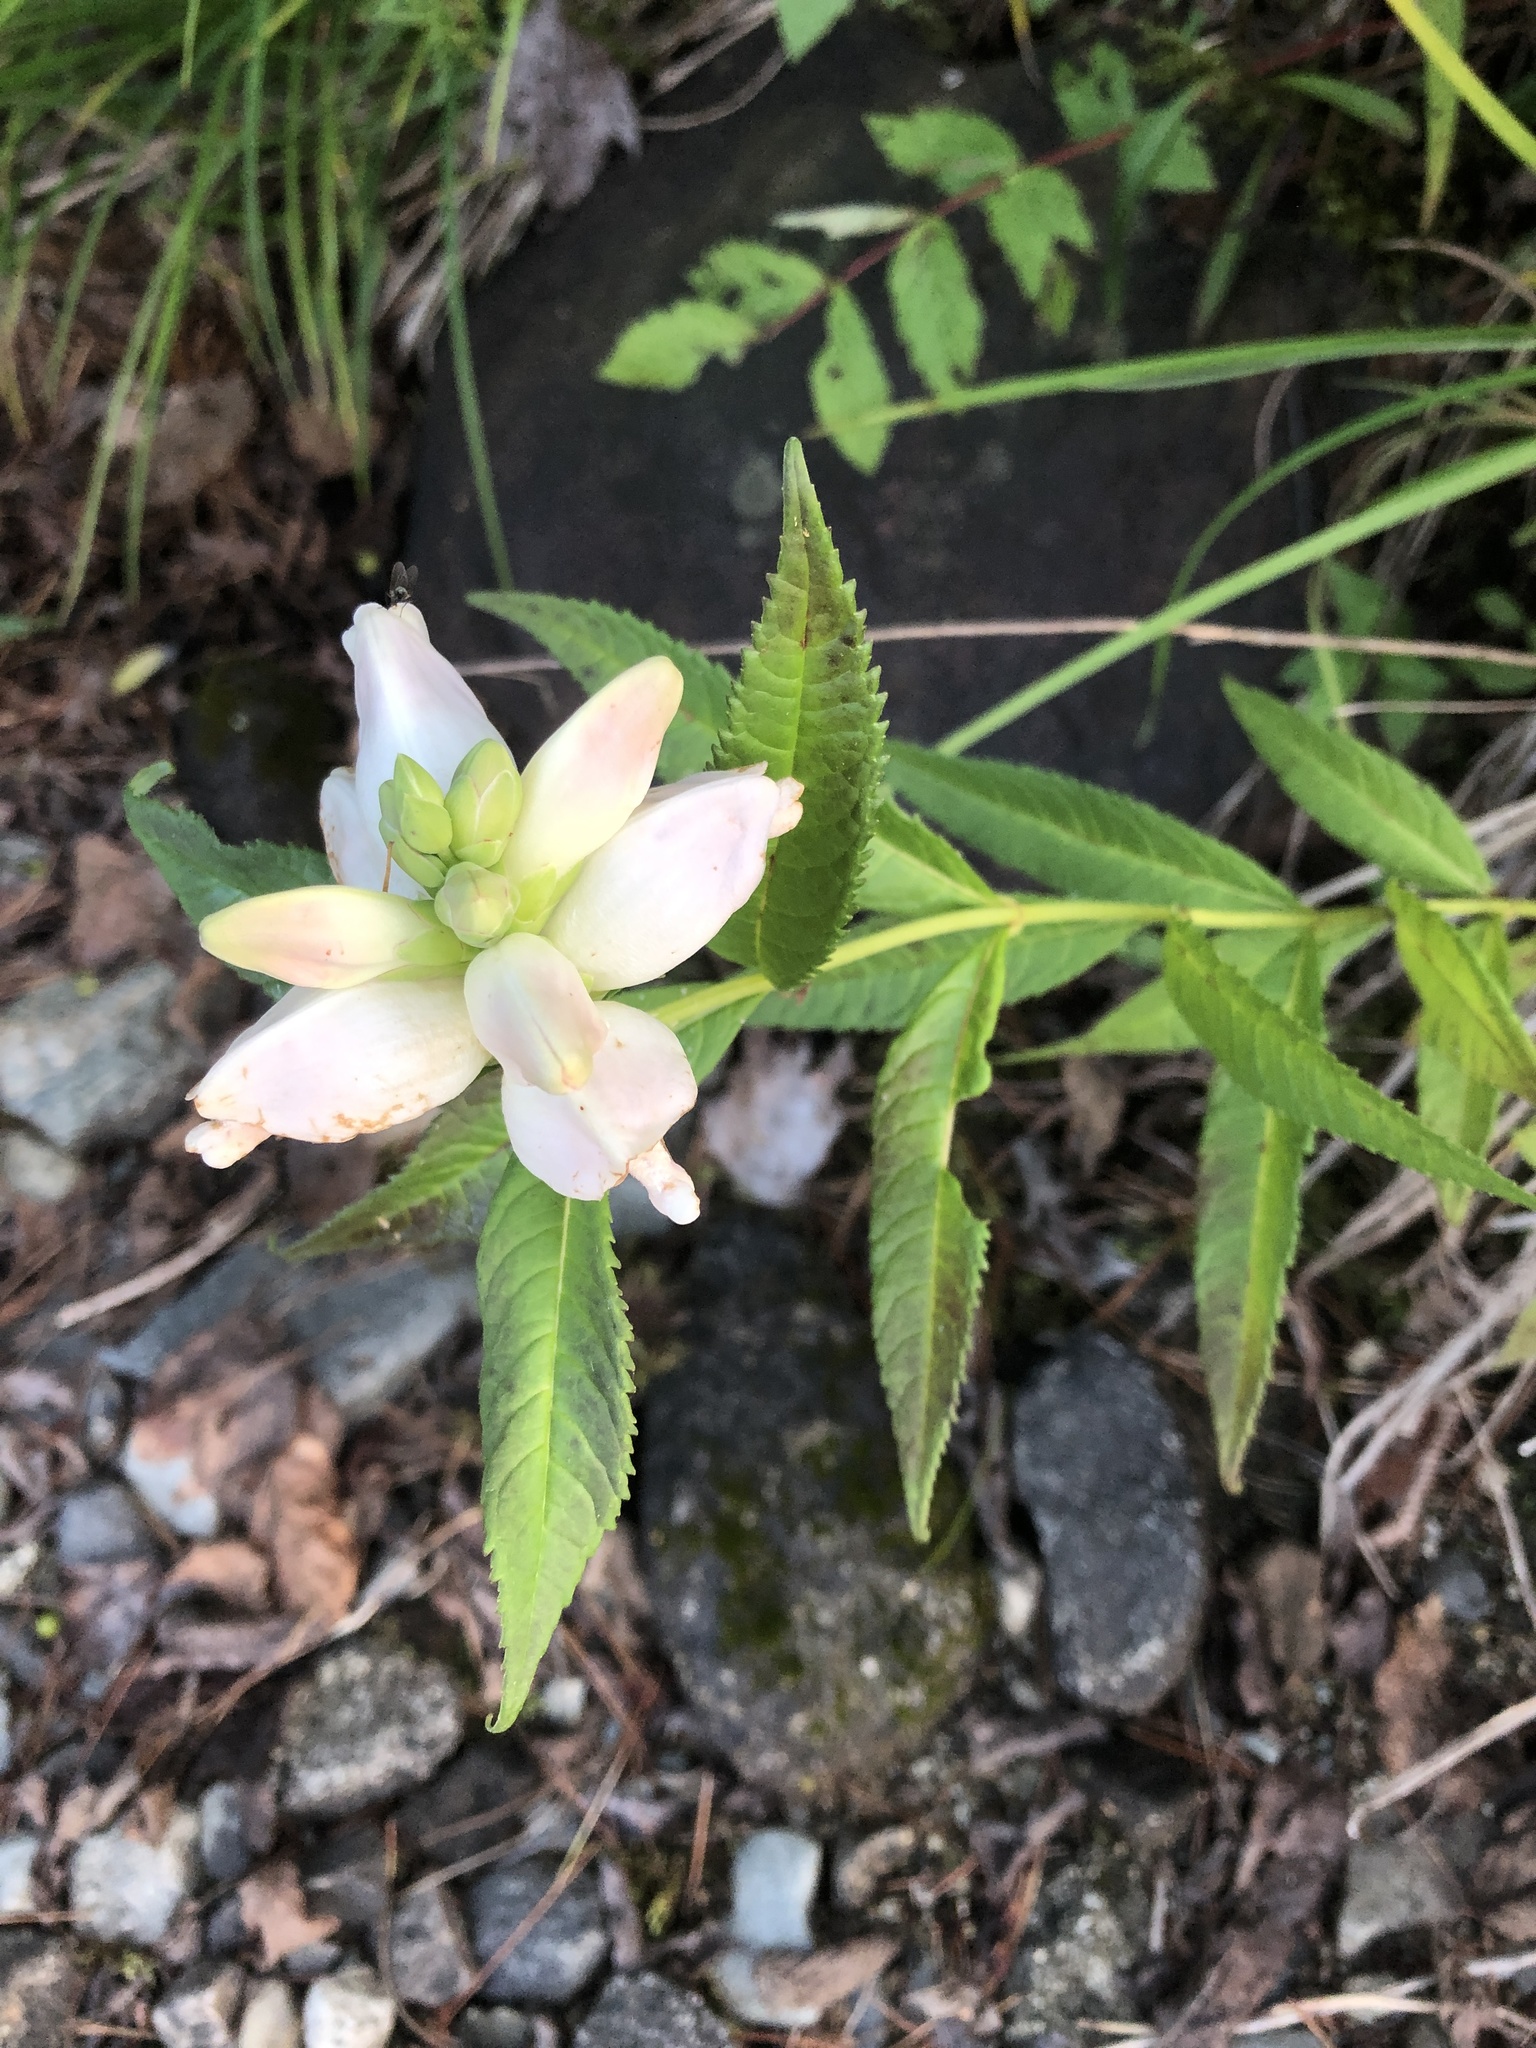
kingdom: Plantae
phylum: Tracheophyta
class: Magnoliopsida
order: Lamiales
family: Plantaginaceae
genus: Chelone
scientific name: Chelone glabra
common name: Snakehead
